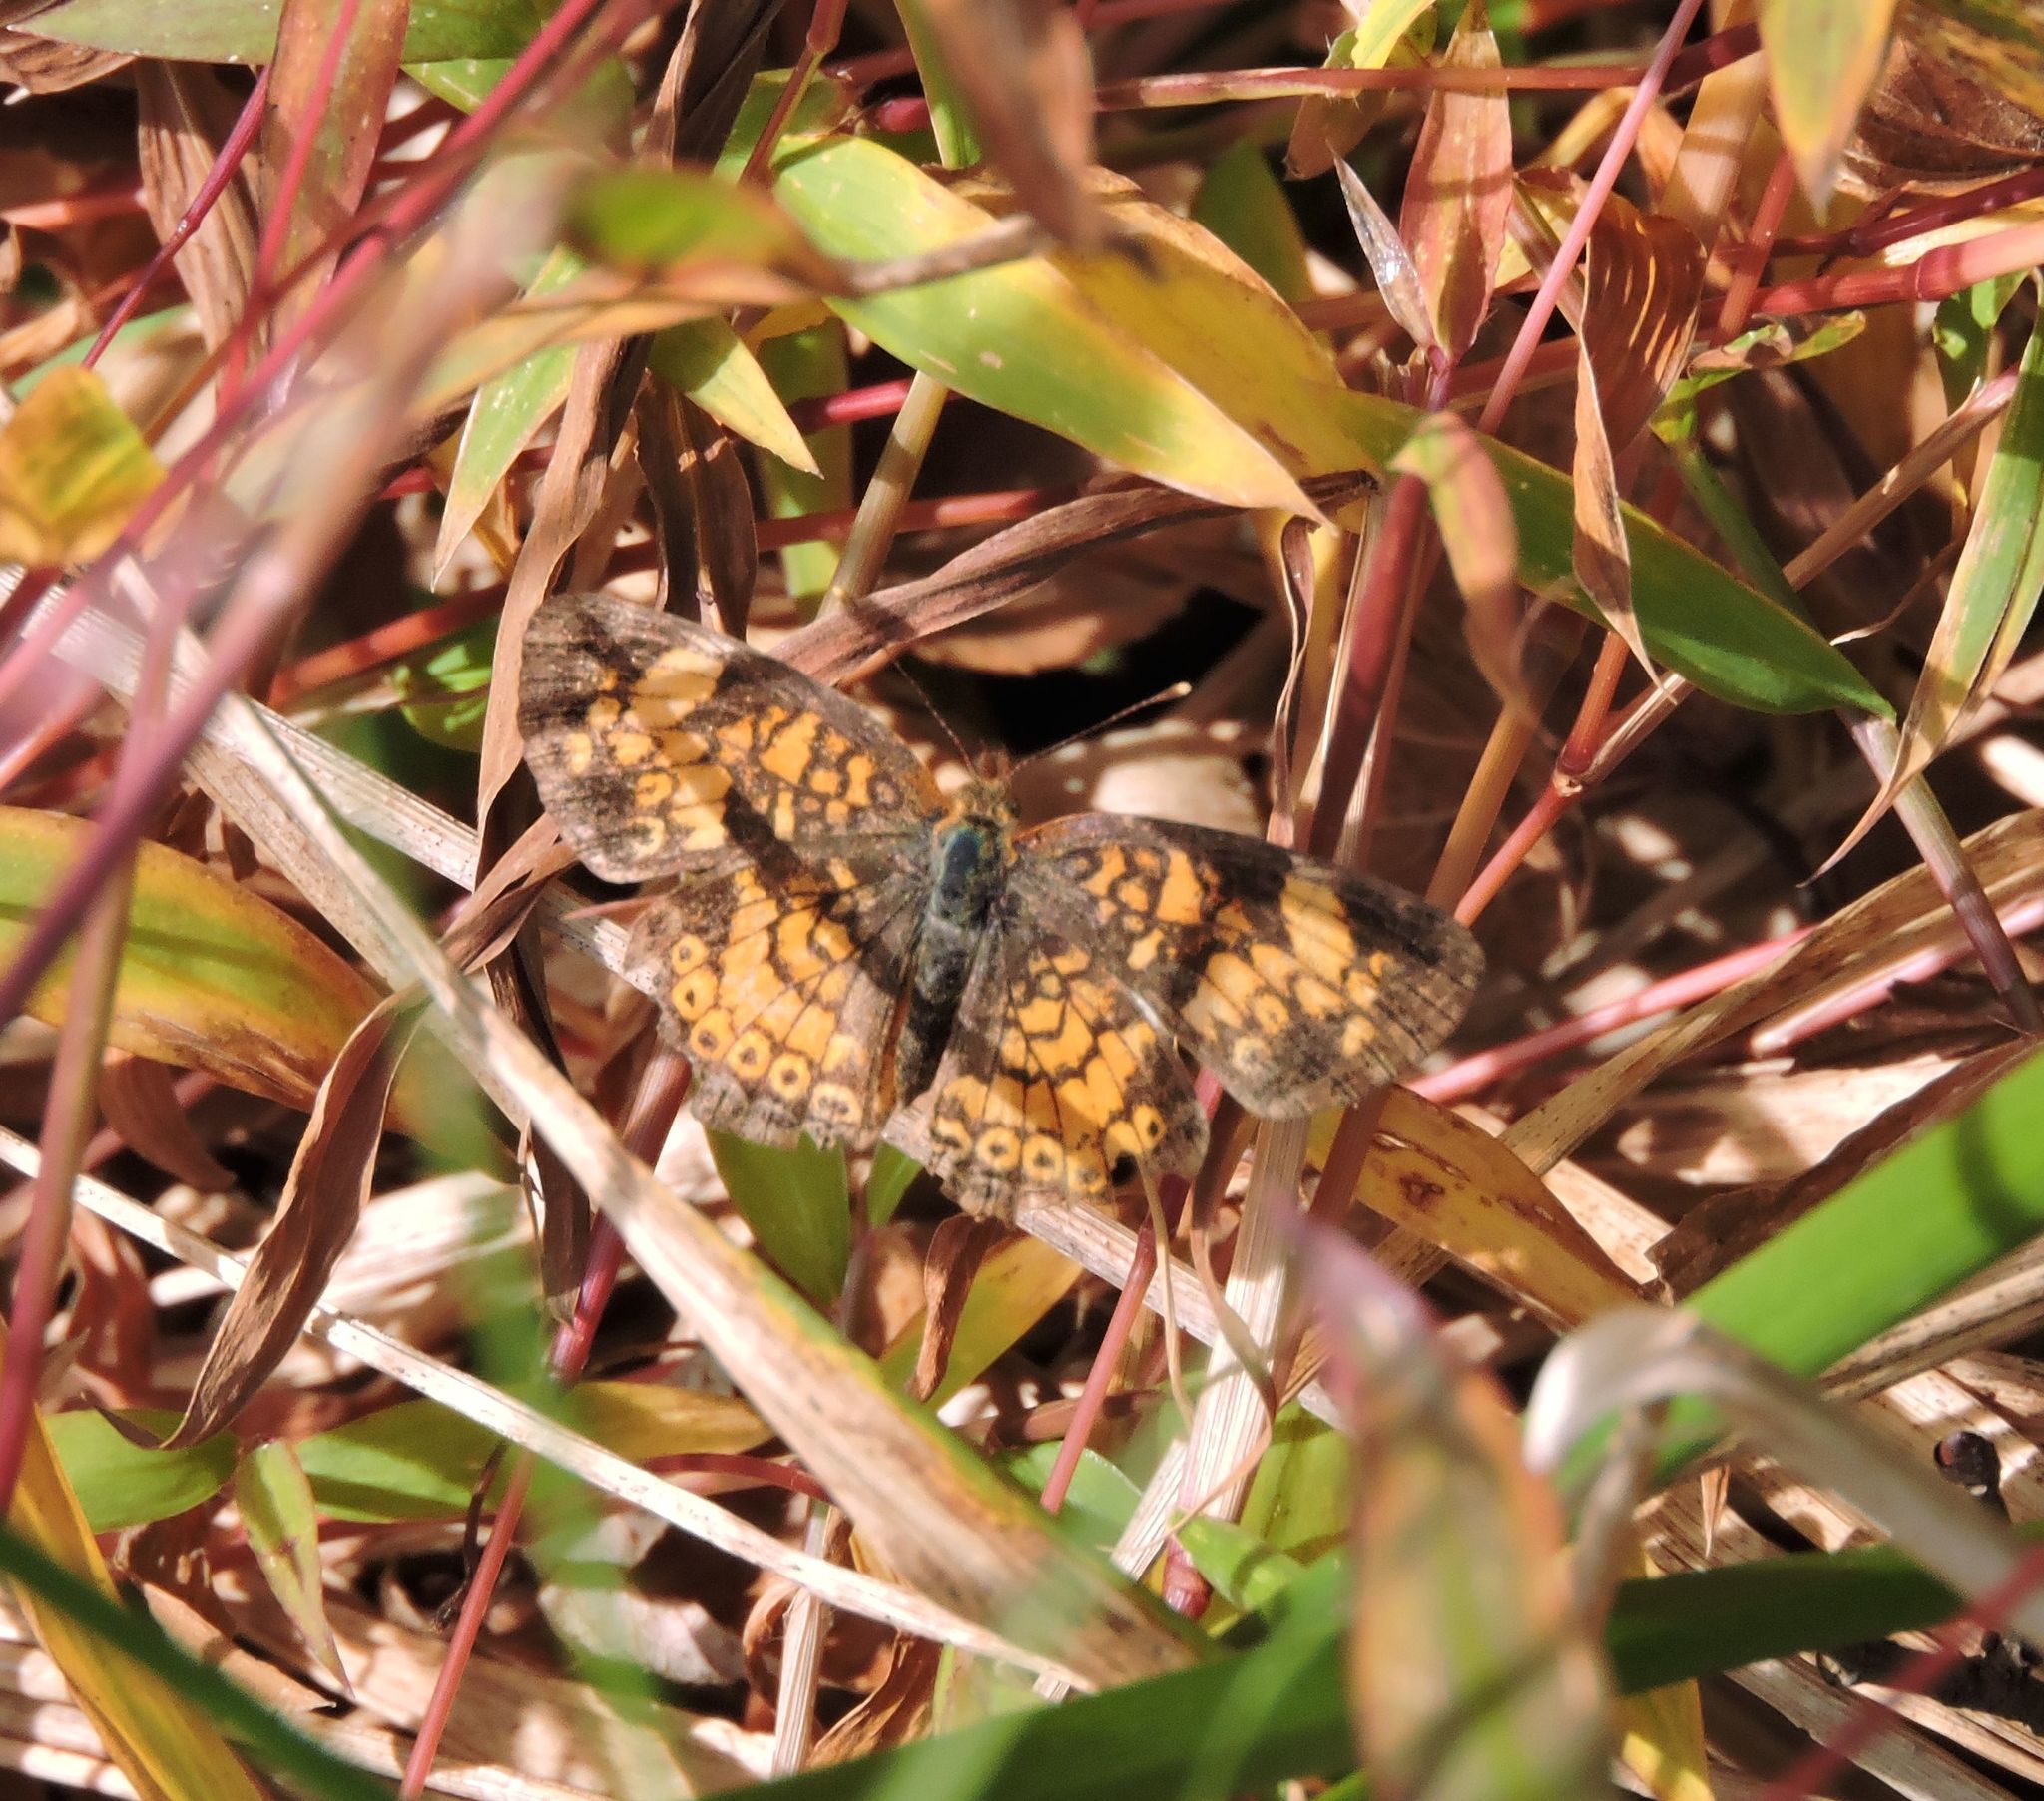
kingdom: Animalia
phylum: Arthropoda
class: Insecta
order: Lepidoptera
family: Nymphalidae
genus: Phyciodes
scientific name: Phyciodes tharos
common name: Pearl crescent
